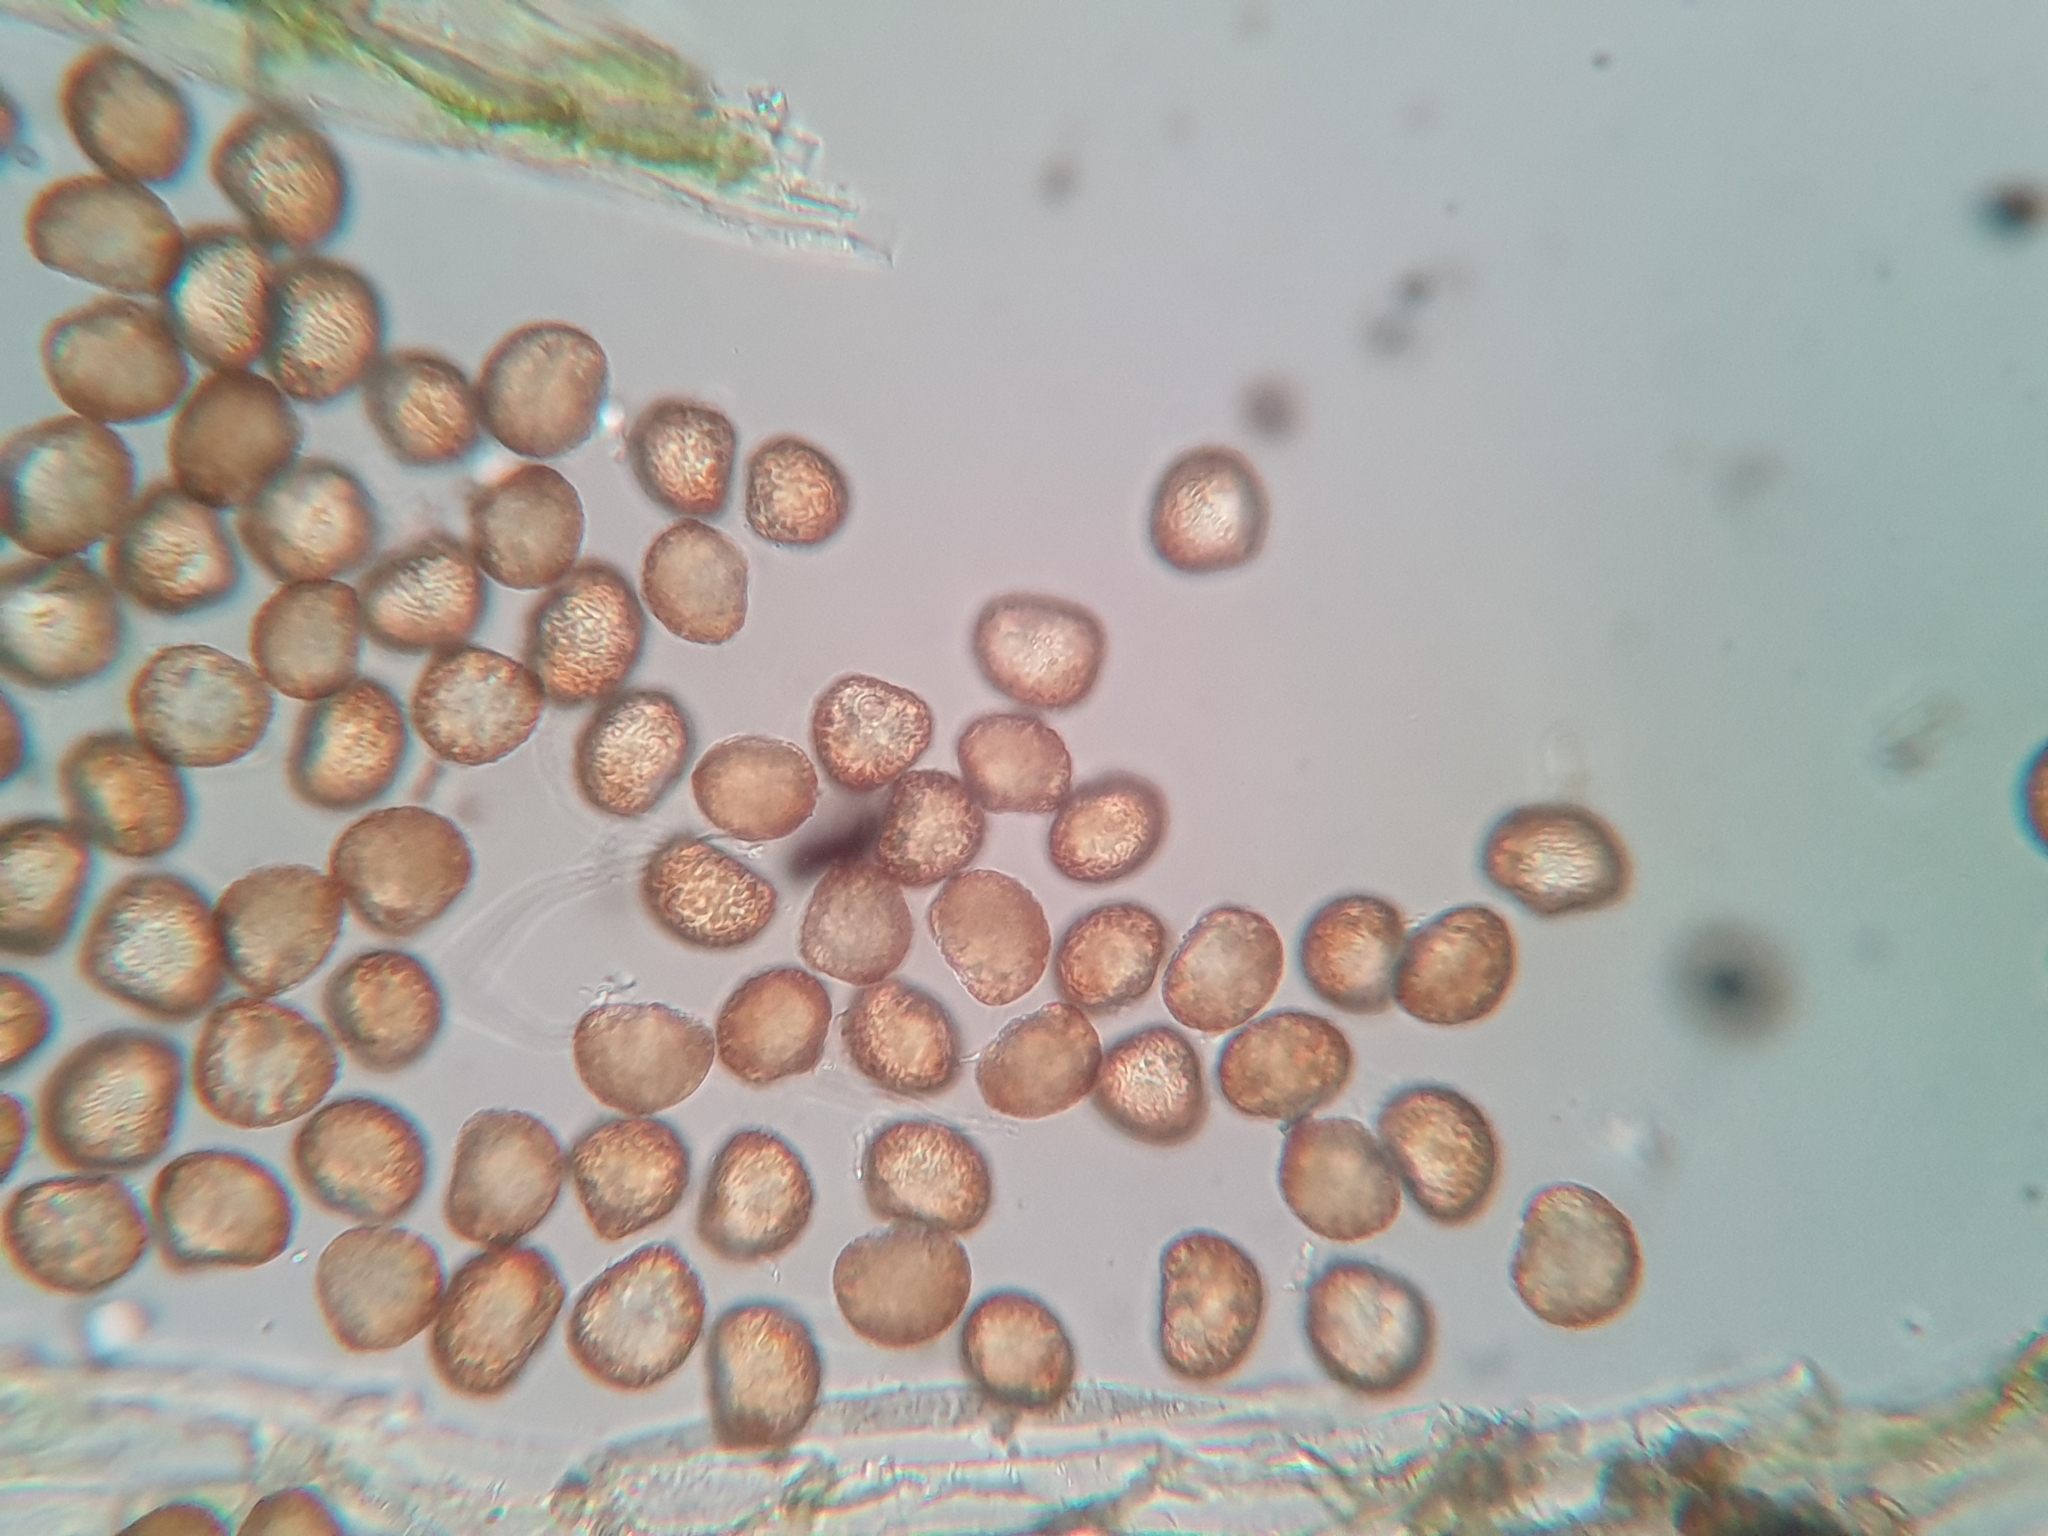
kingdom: Plantae
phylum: Bryophyta
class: Bryopsida
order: Dicranales
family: Micromitriaceae
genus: Micromitrium
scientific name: Micromitrium tenerum
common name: Millimetre moss
